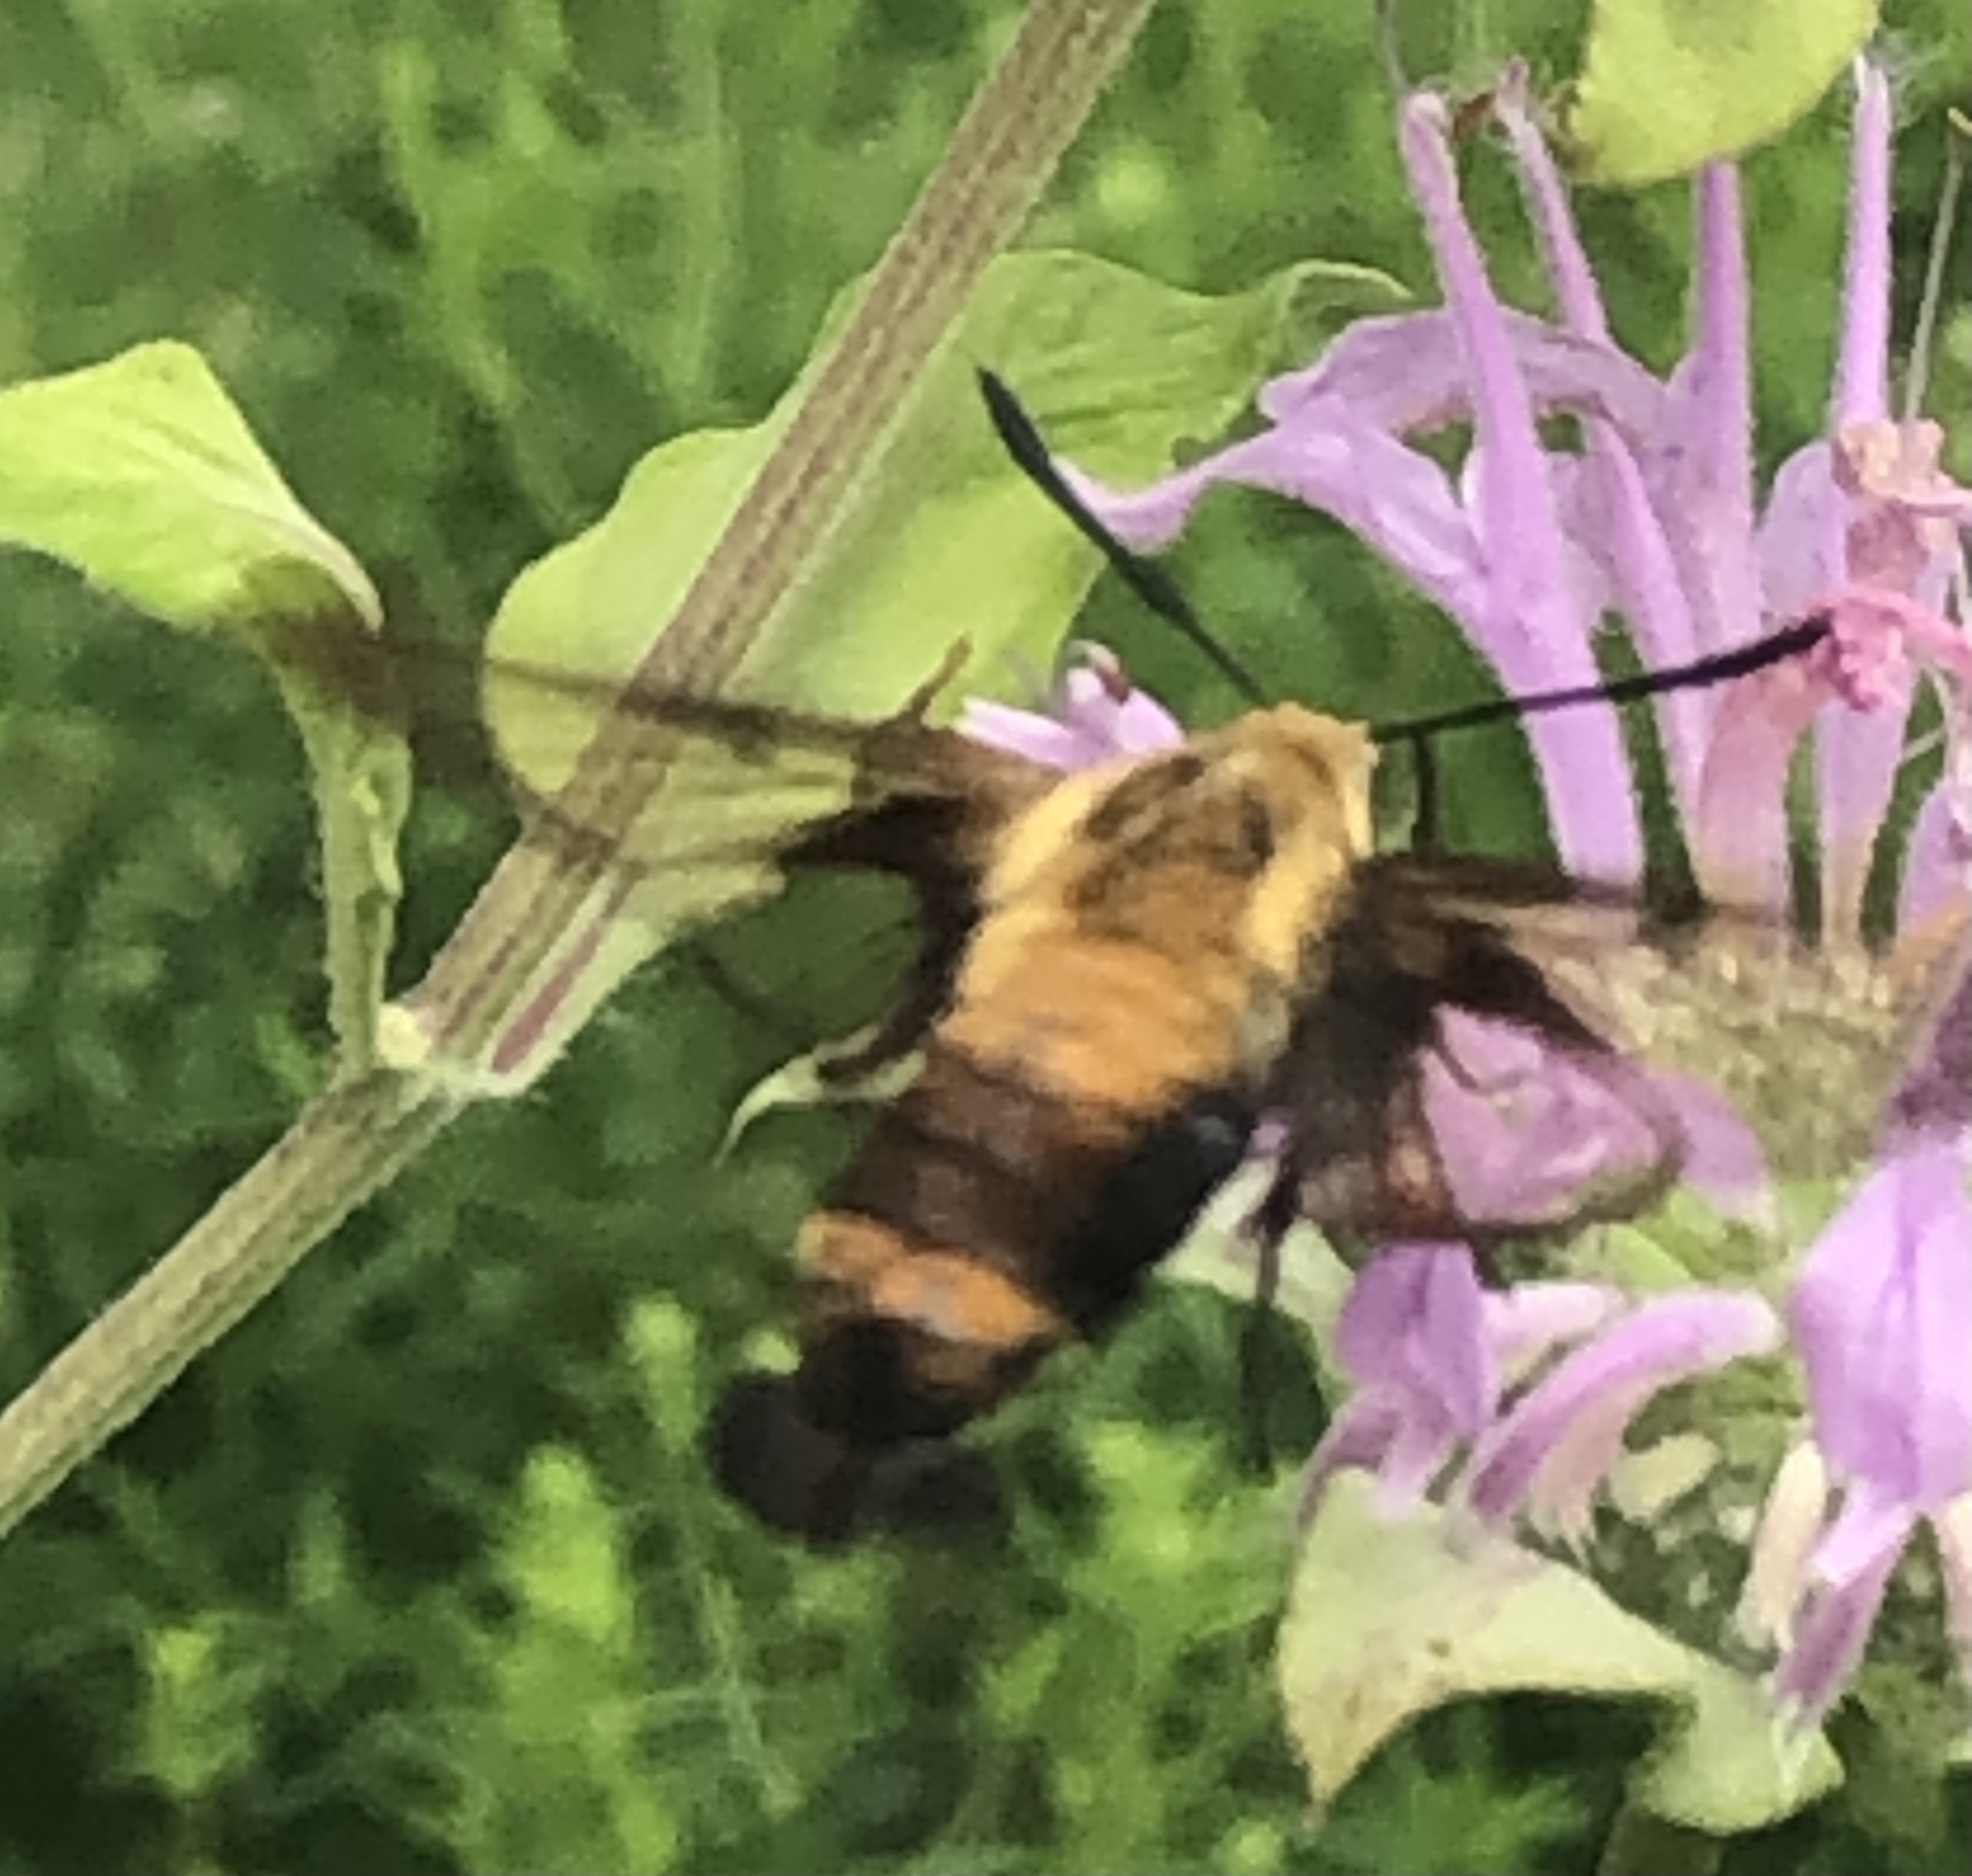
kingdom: Animalia
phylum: Arthropoda
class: Insecta
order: Lepidoptera
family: Sphingidae
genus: Hemaris
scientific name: Hemaris diffinis
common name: Bumblebee moth
